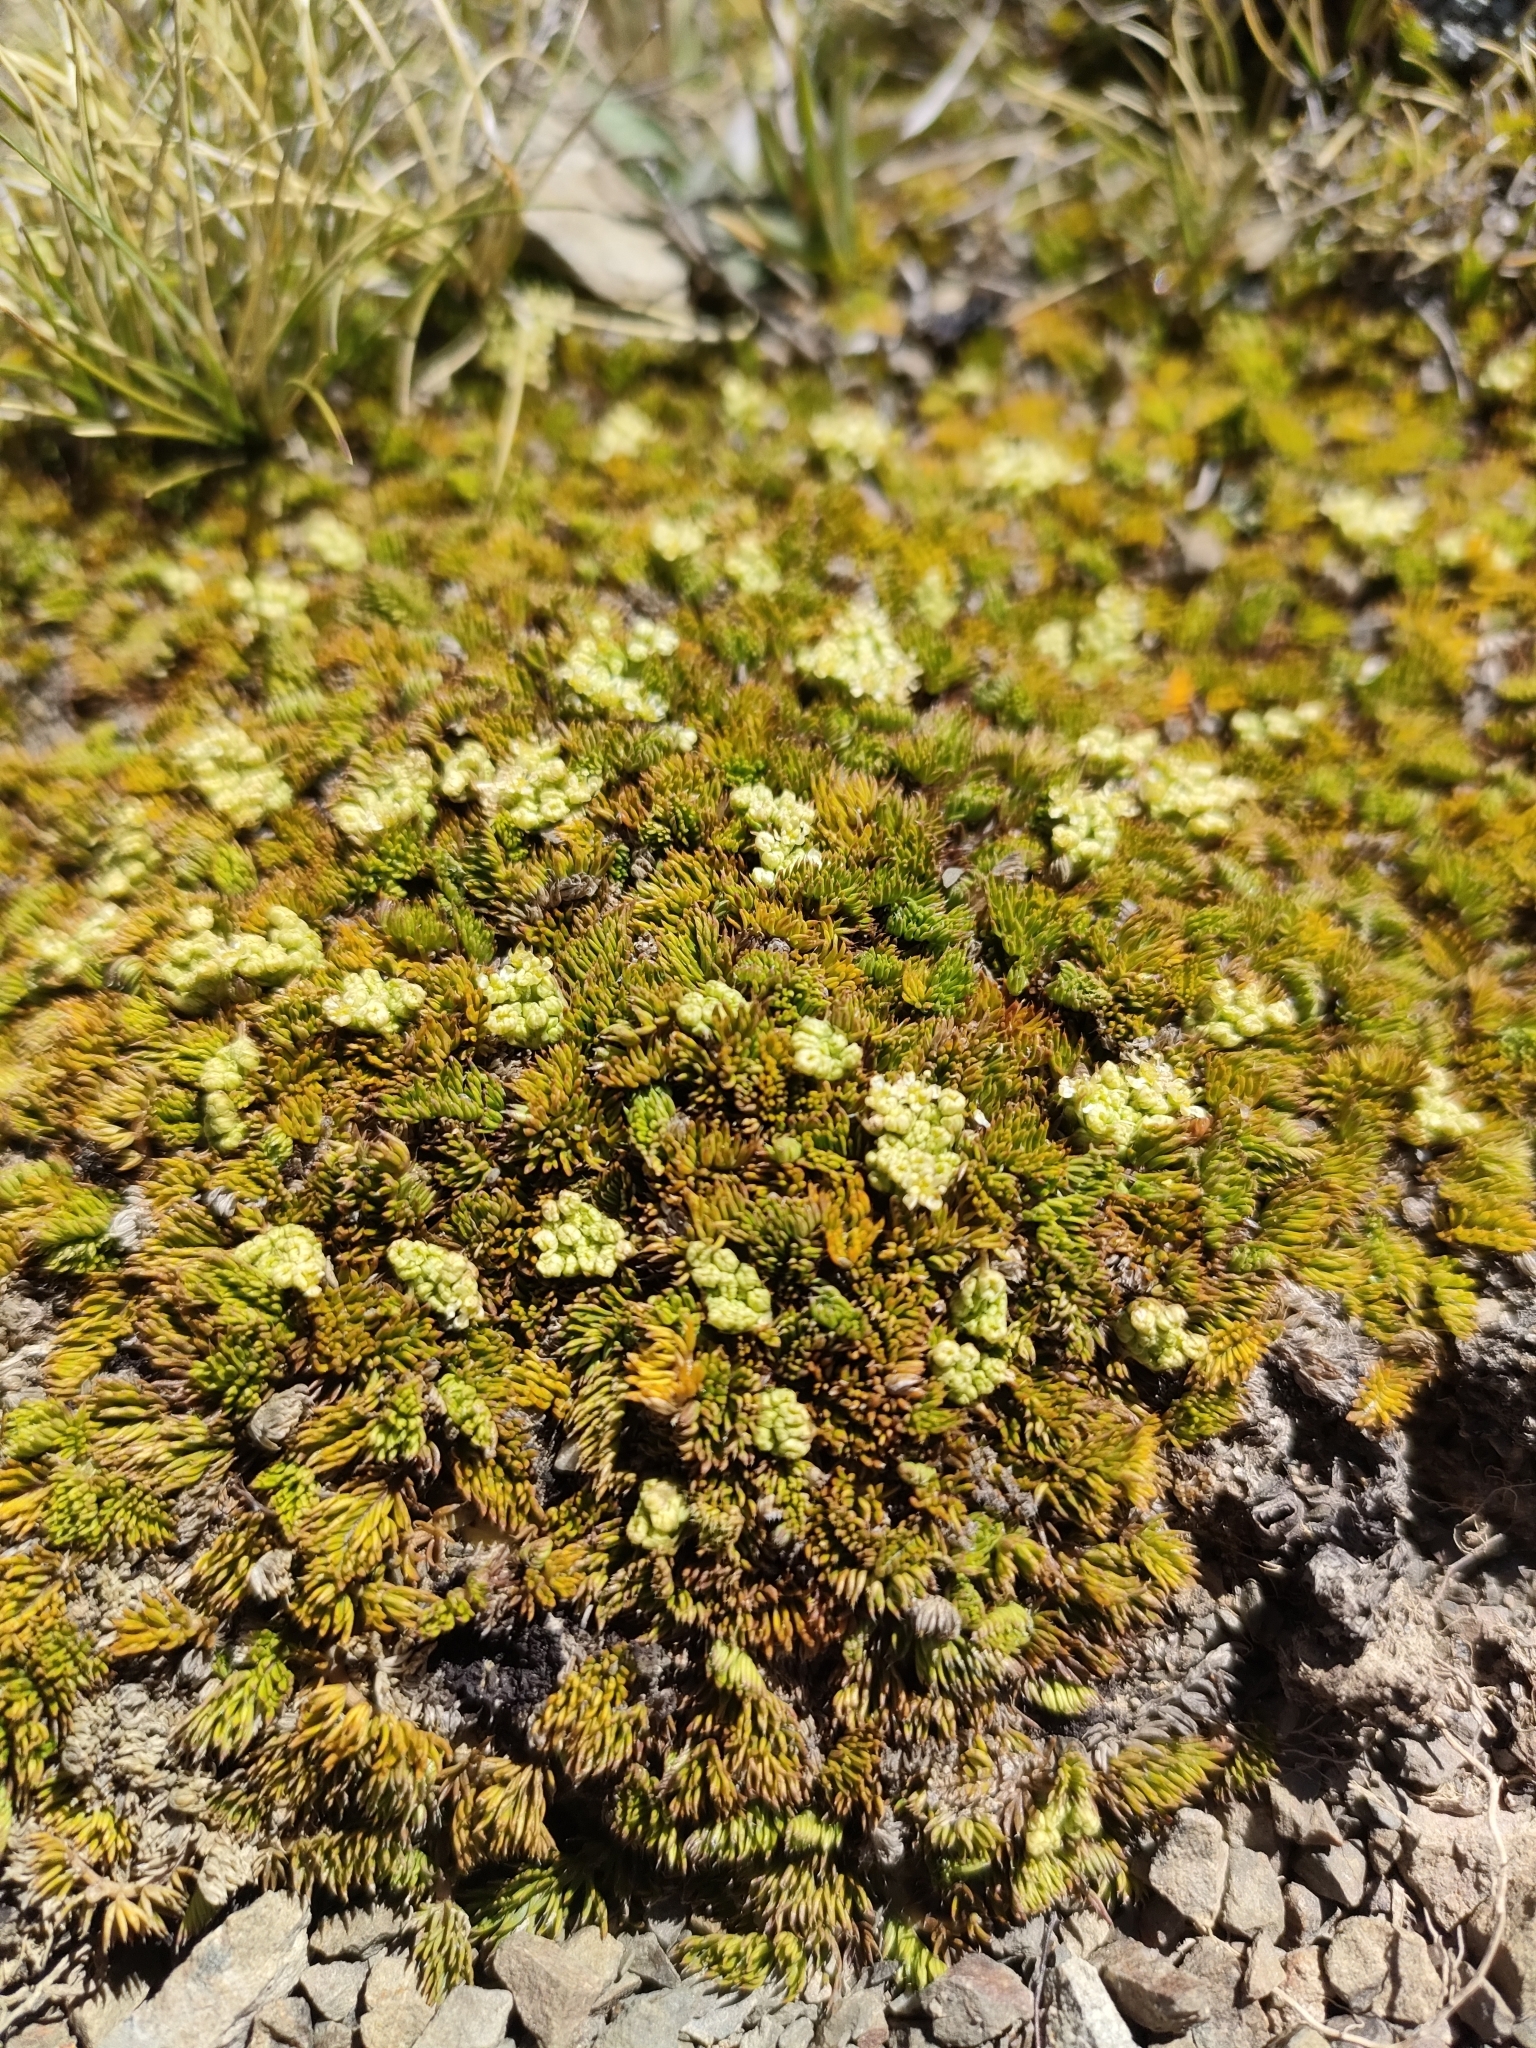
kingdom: Plantae
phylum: Tracheophyta
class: Magnoliopsida
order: Apiales
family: Apiaceae
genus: Anisotome
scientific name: Anisotome imbricata
